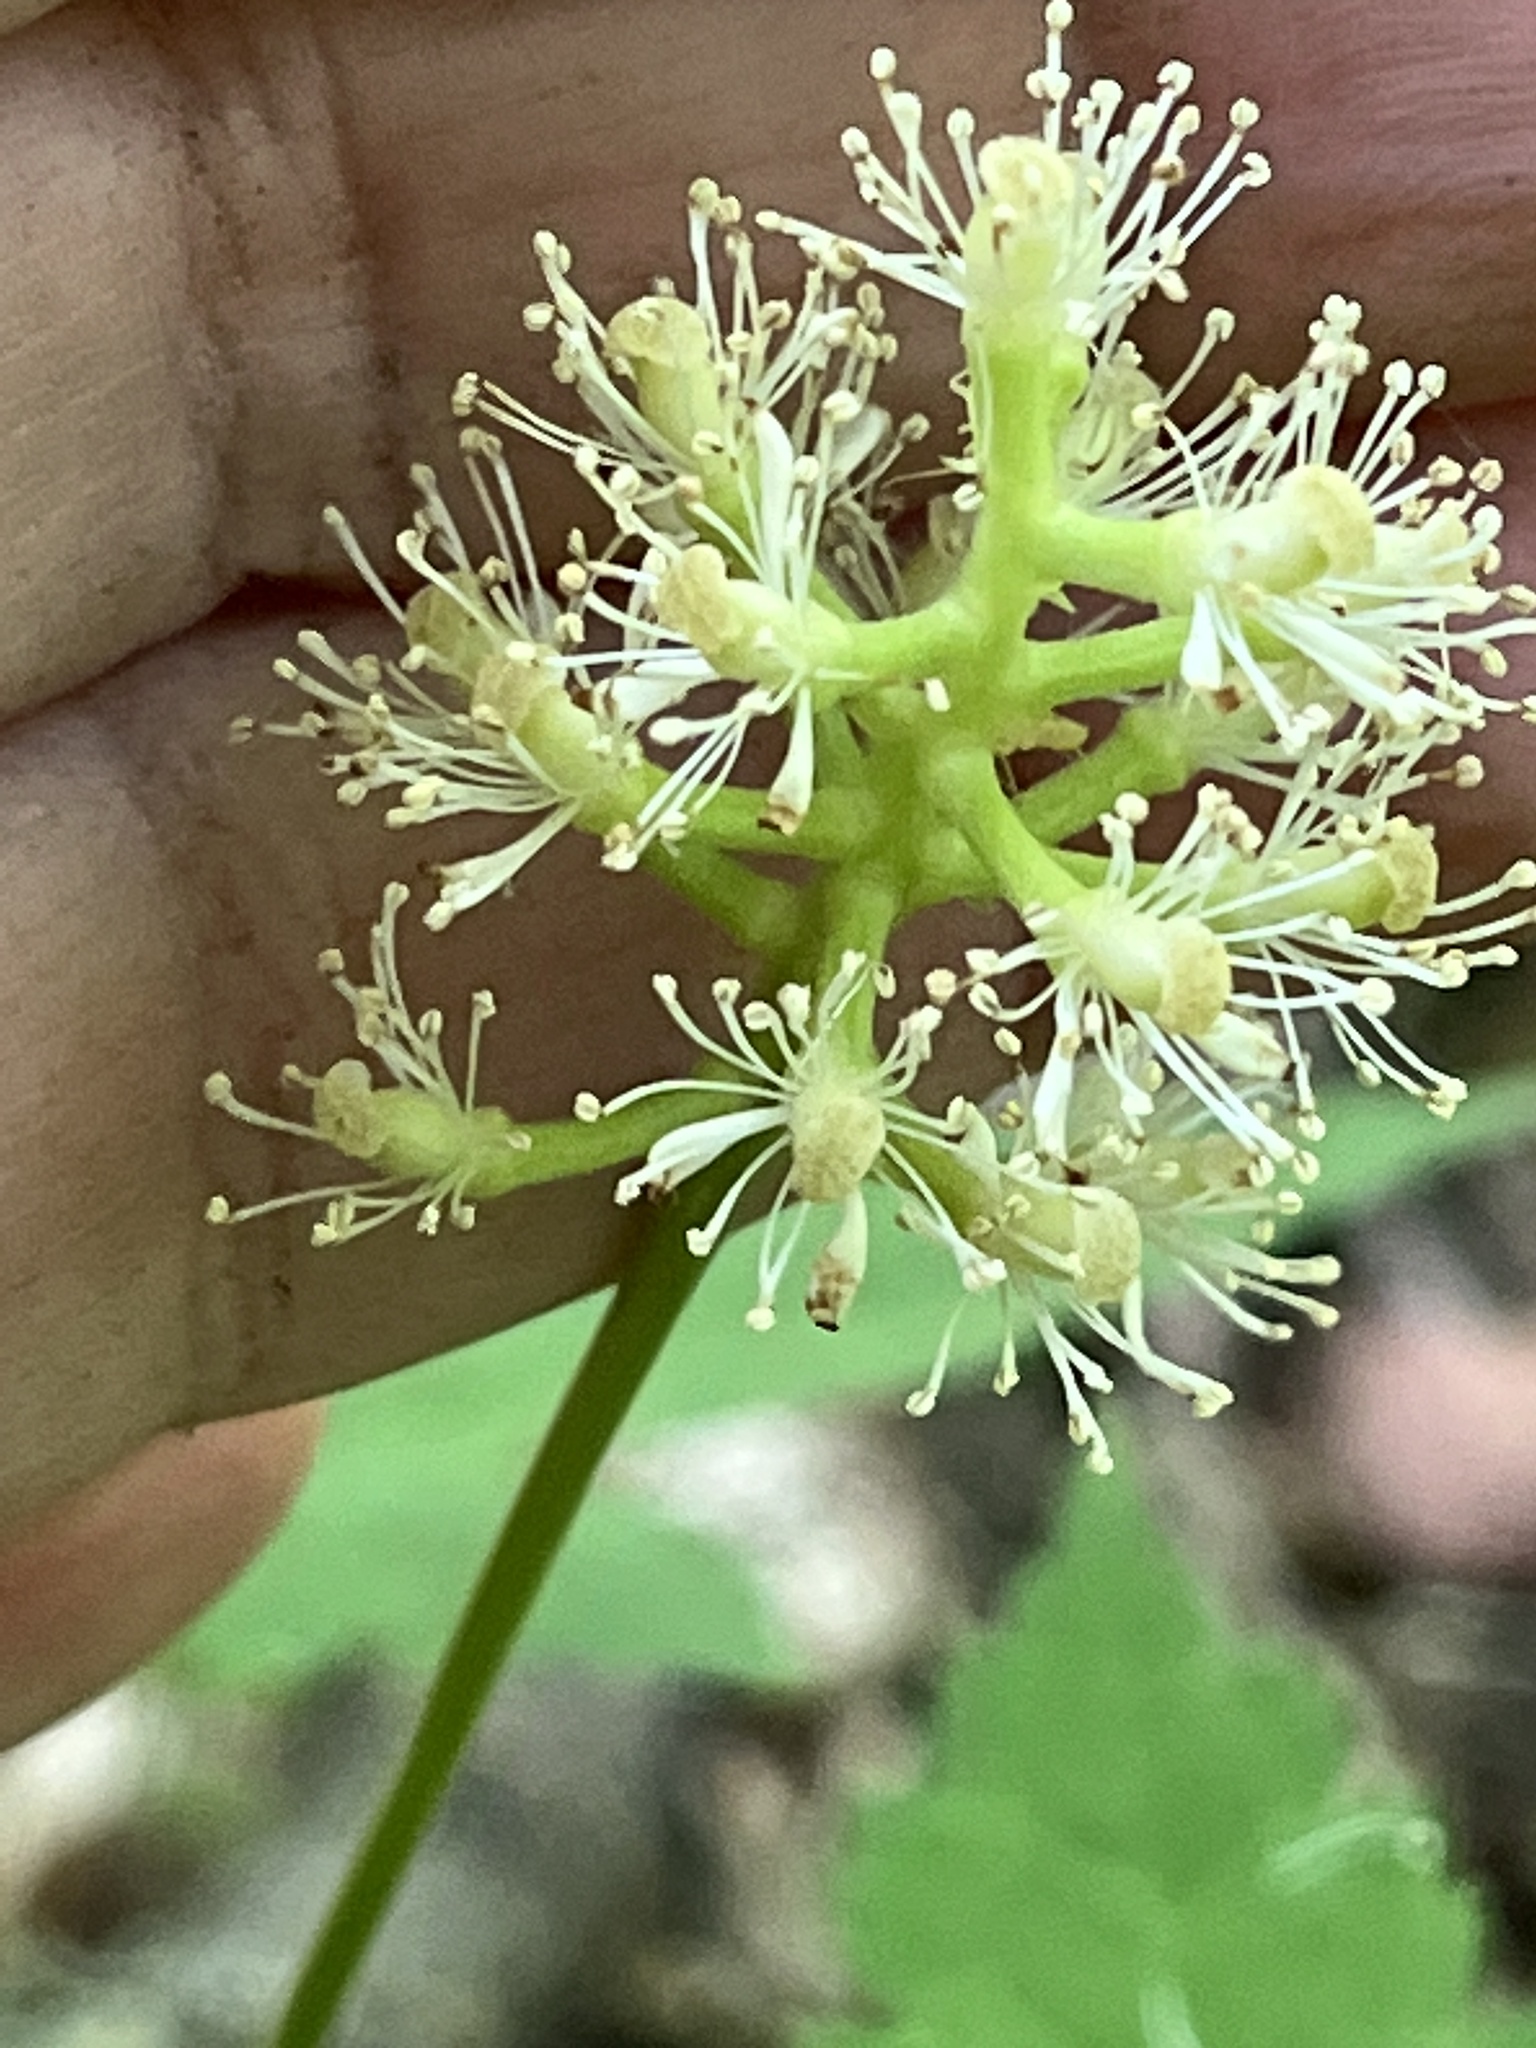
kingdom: Plantae
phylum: Tracheophyta
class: Magnoliopsida
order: Ranunculales
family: Ranunculaceae
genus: Actaea
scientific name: Actaea pachypoda
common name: Doll's-eyes
